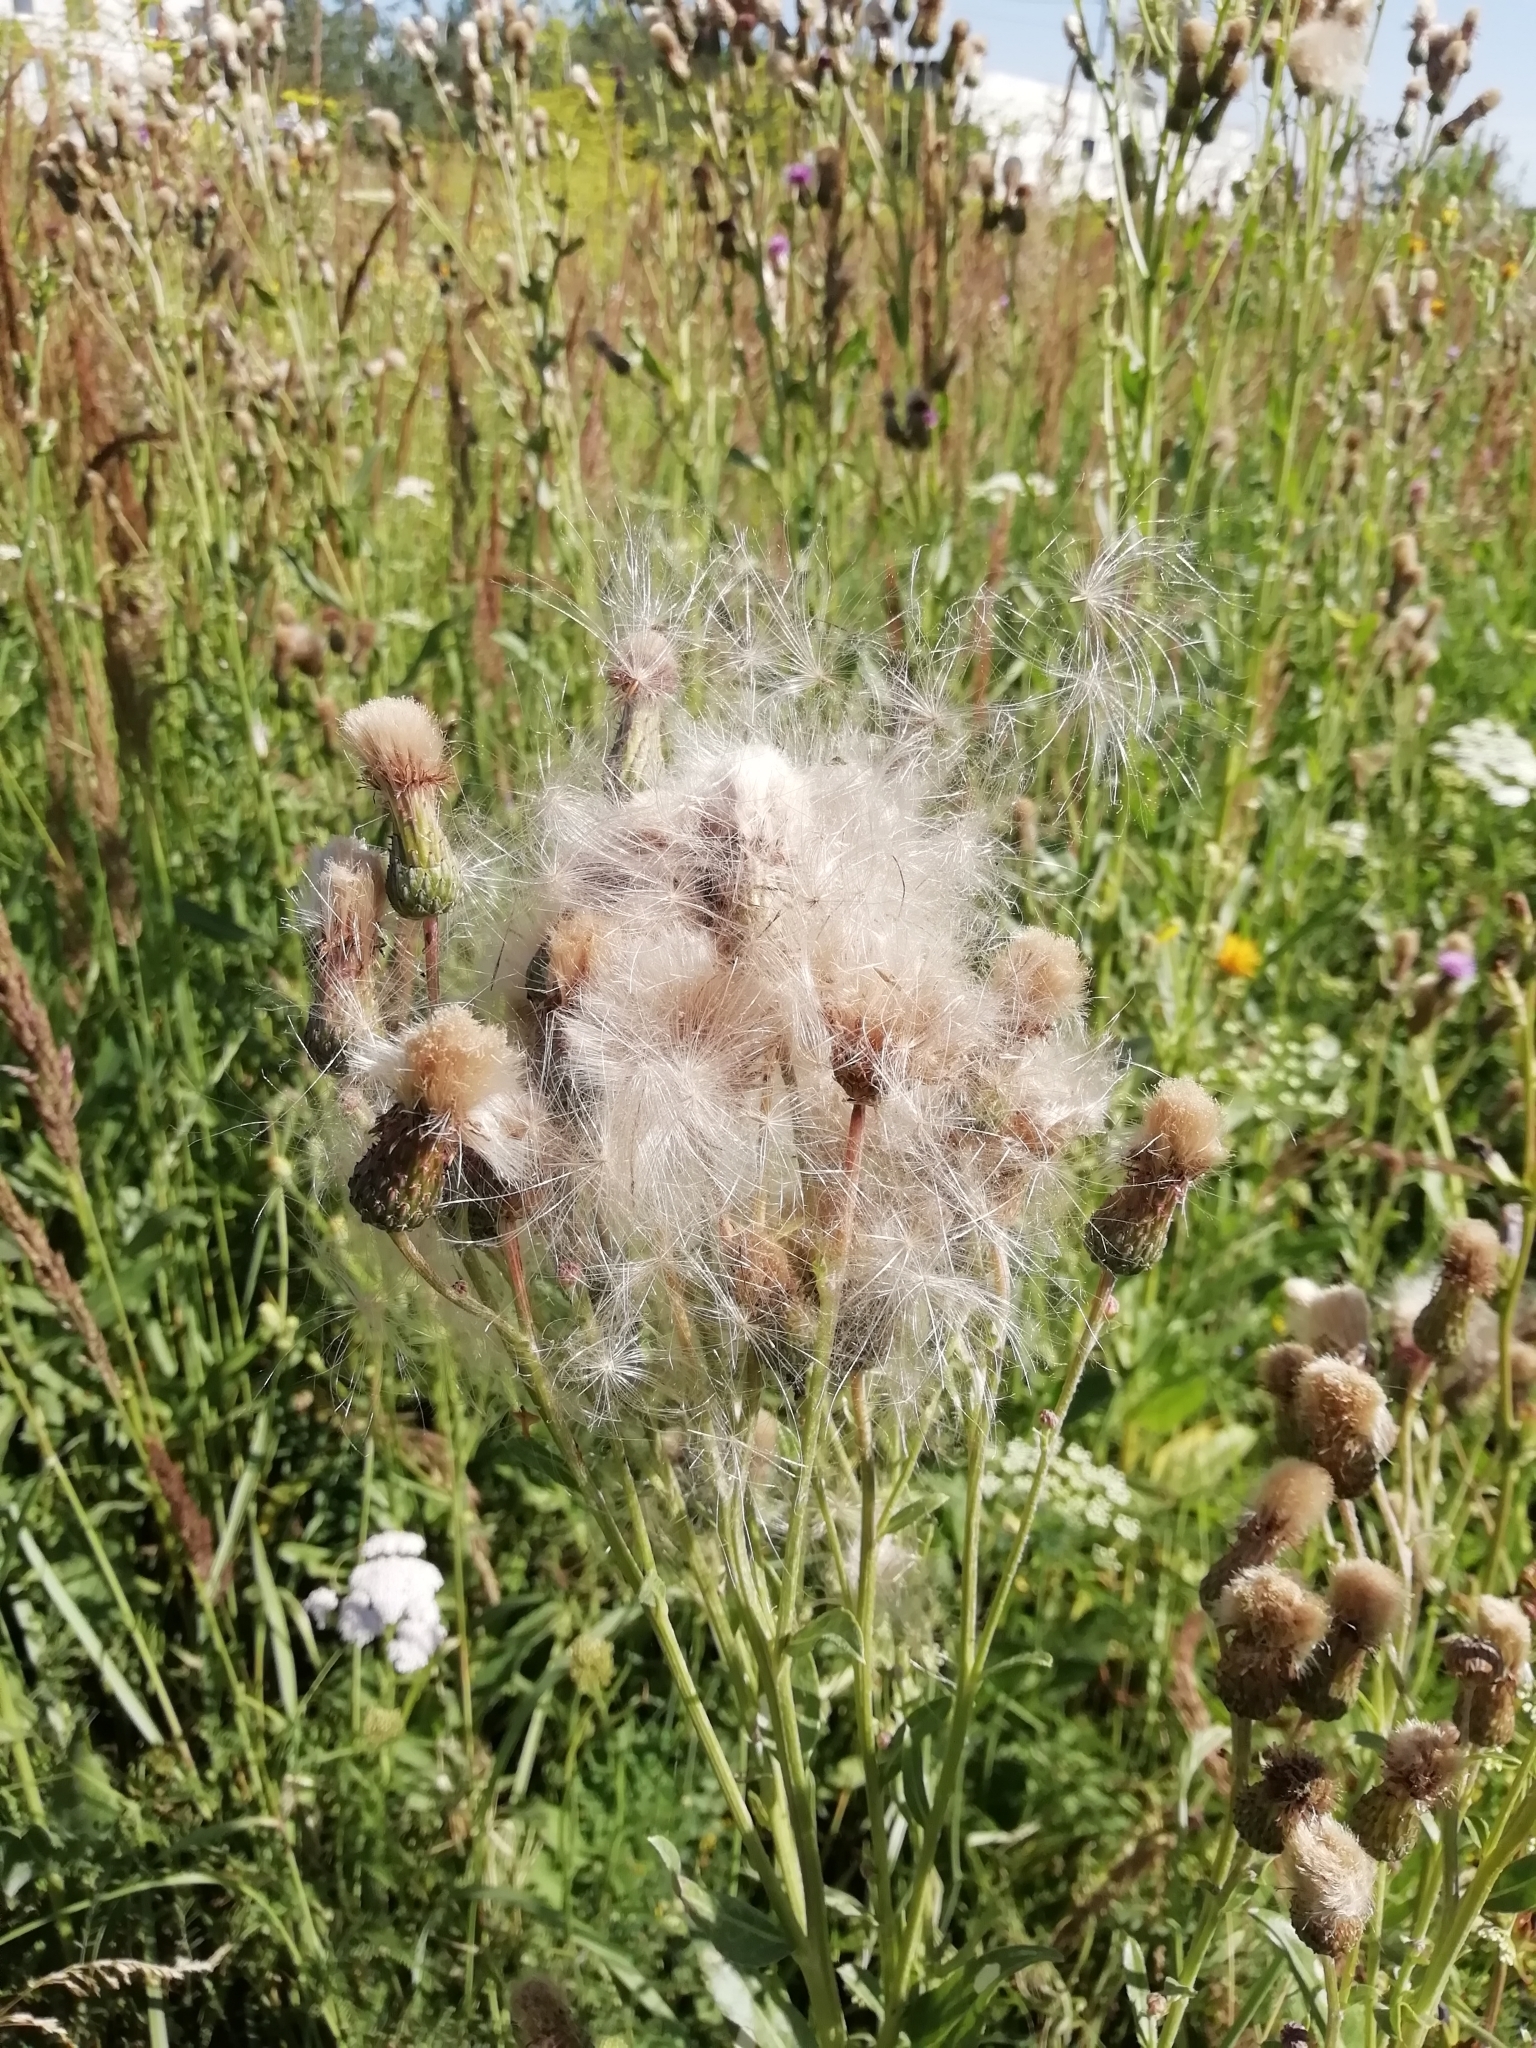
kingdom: Plantae
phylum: Tracheophyta
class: Magnoliopsida
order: Asterales
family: Asteraceae
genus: Cirsium
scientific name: Cirsium arvense
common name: Creeping thistle
